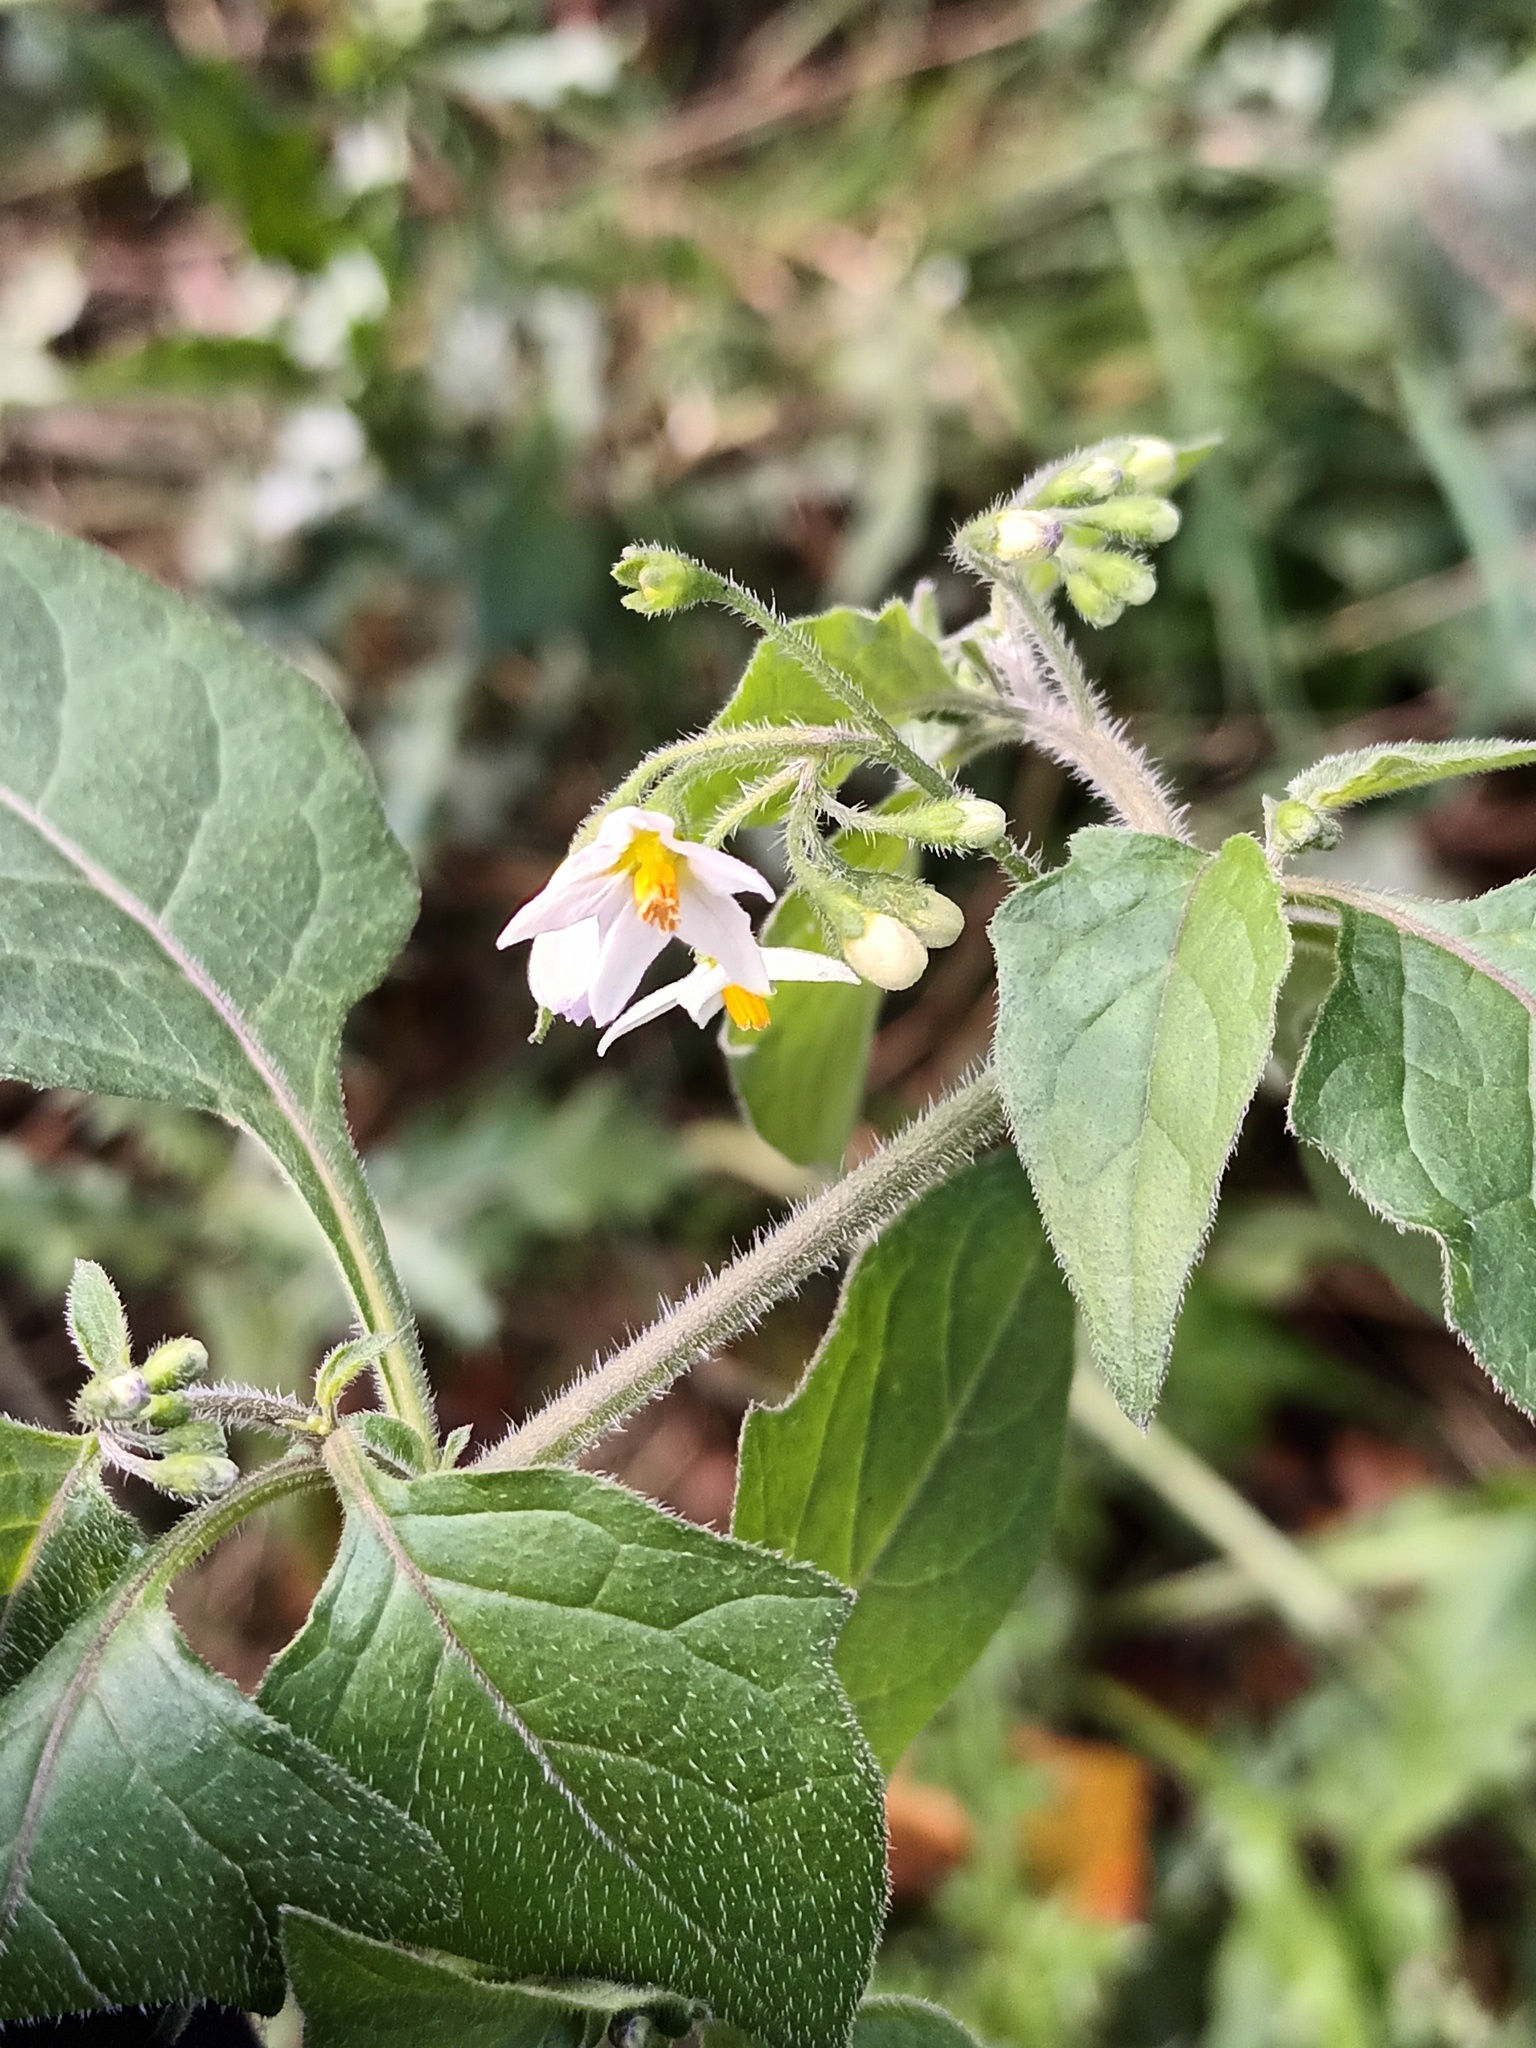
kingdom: Plantae
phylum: Tracheophyta
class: Magnoliopsida
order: Solanales
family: Solanaceae
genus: Solanum
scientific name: Solanum nigrum
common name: Black nightshade
